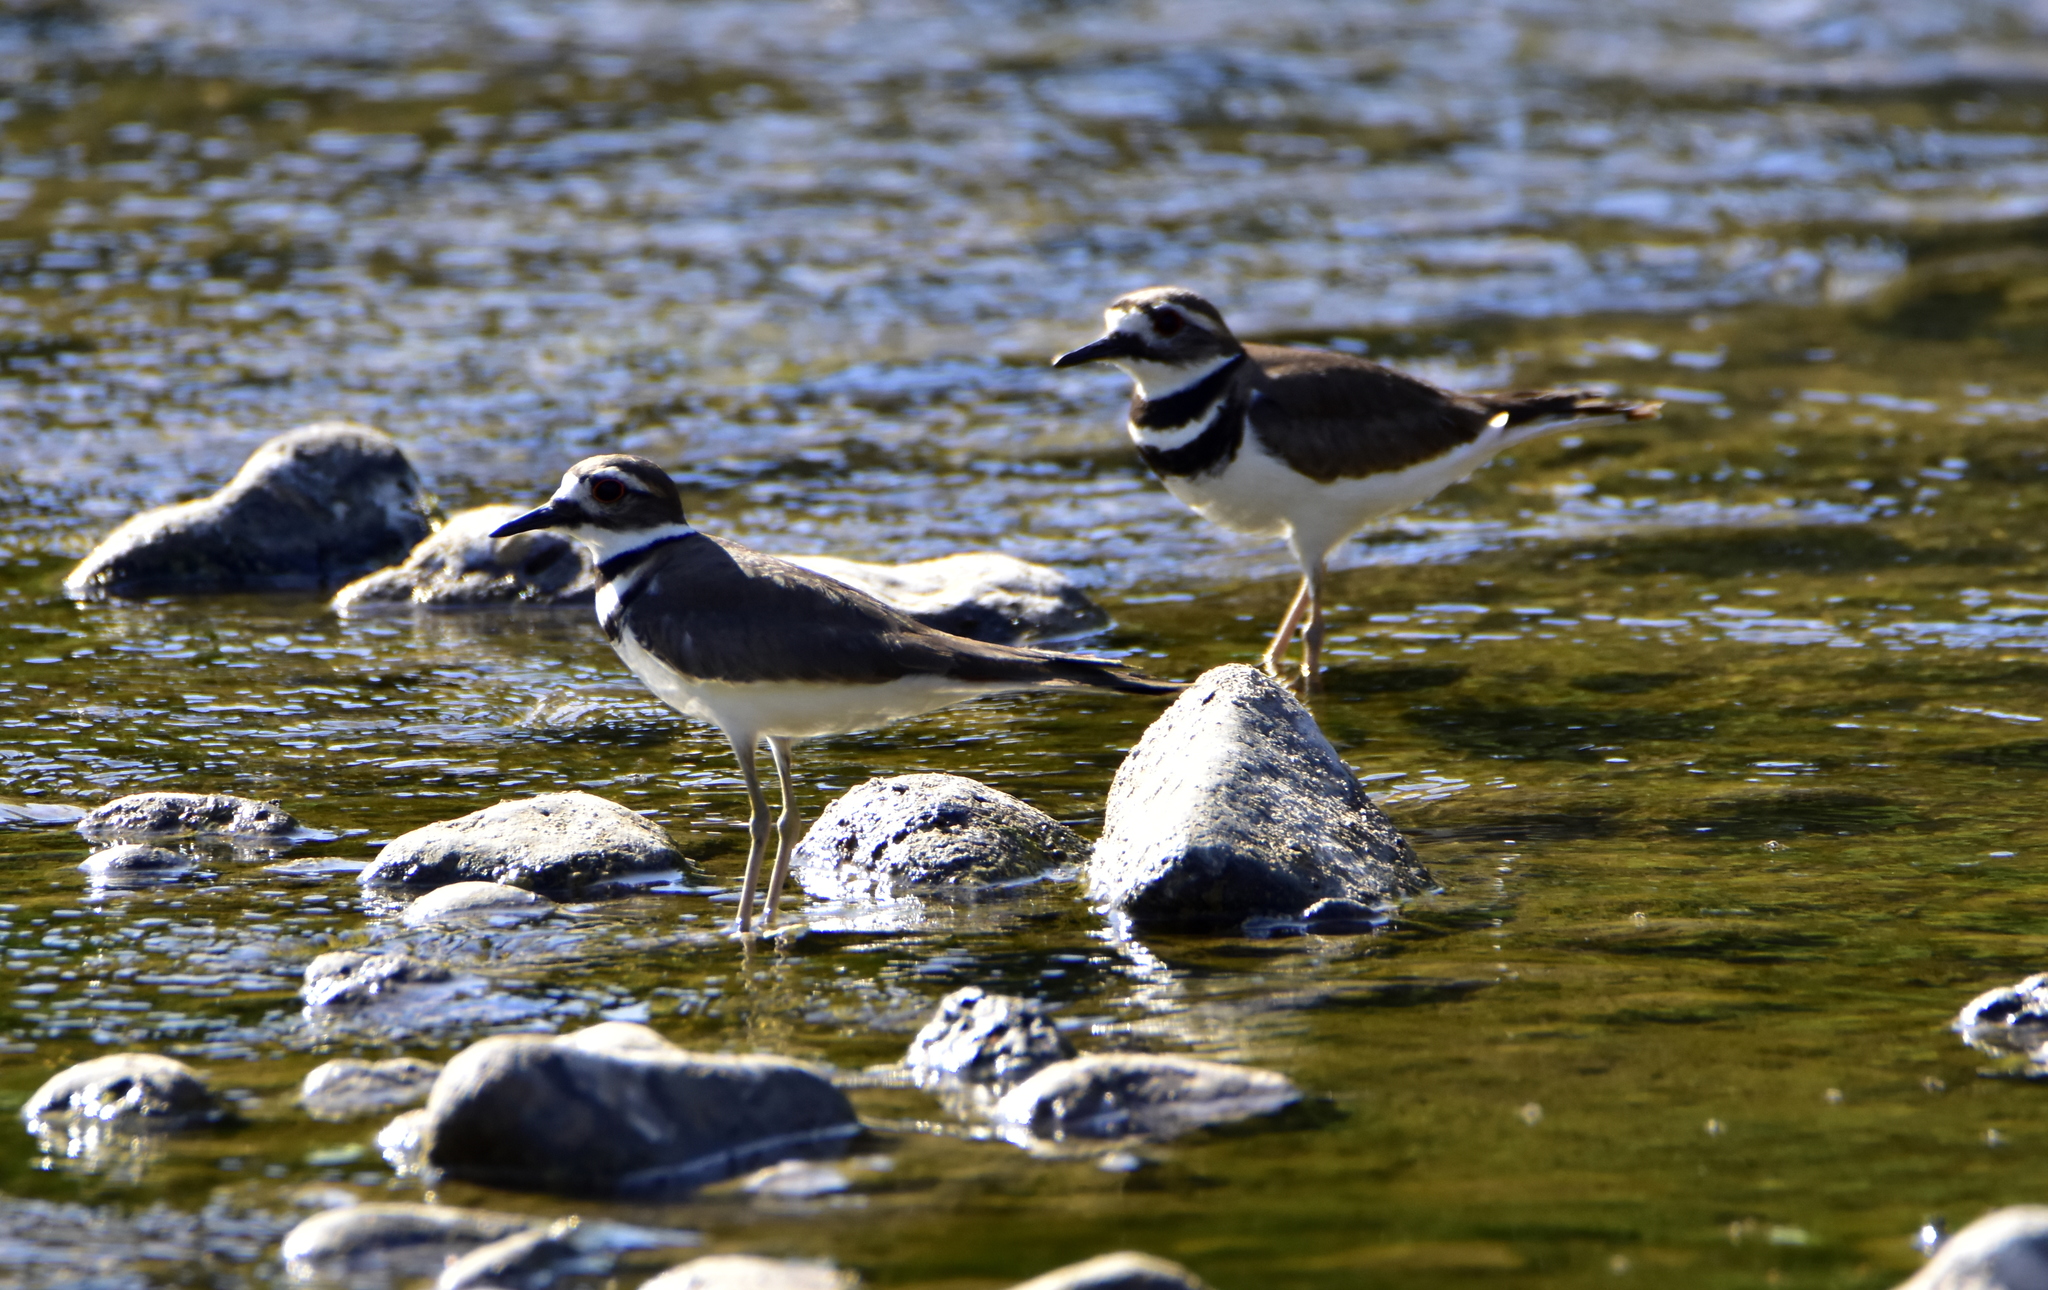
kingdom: Animalia
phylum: Chordata
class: Aves
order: Charadriiformes
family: Charadriidae
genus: Charadrius
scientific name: Charadrius vociferus
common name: Killdeer
